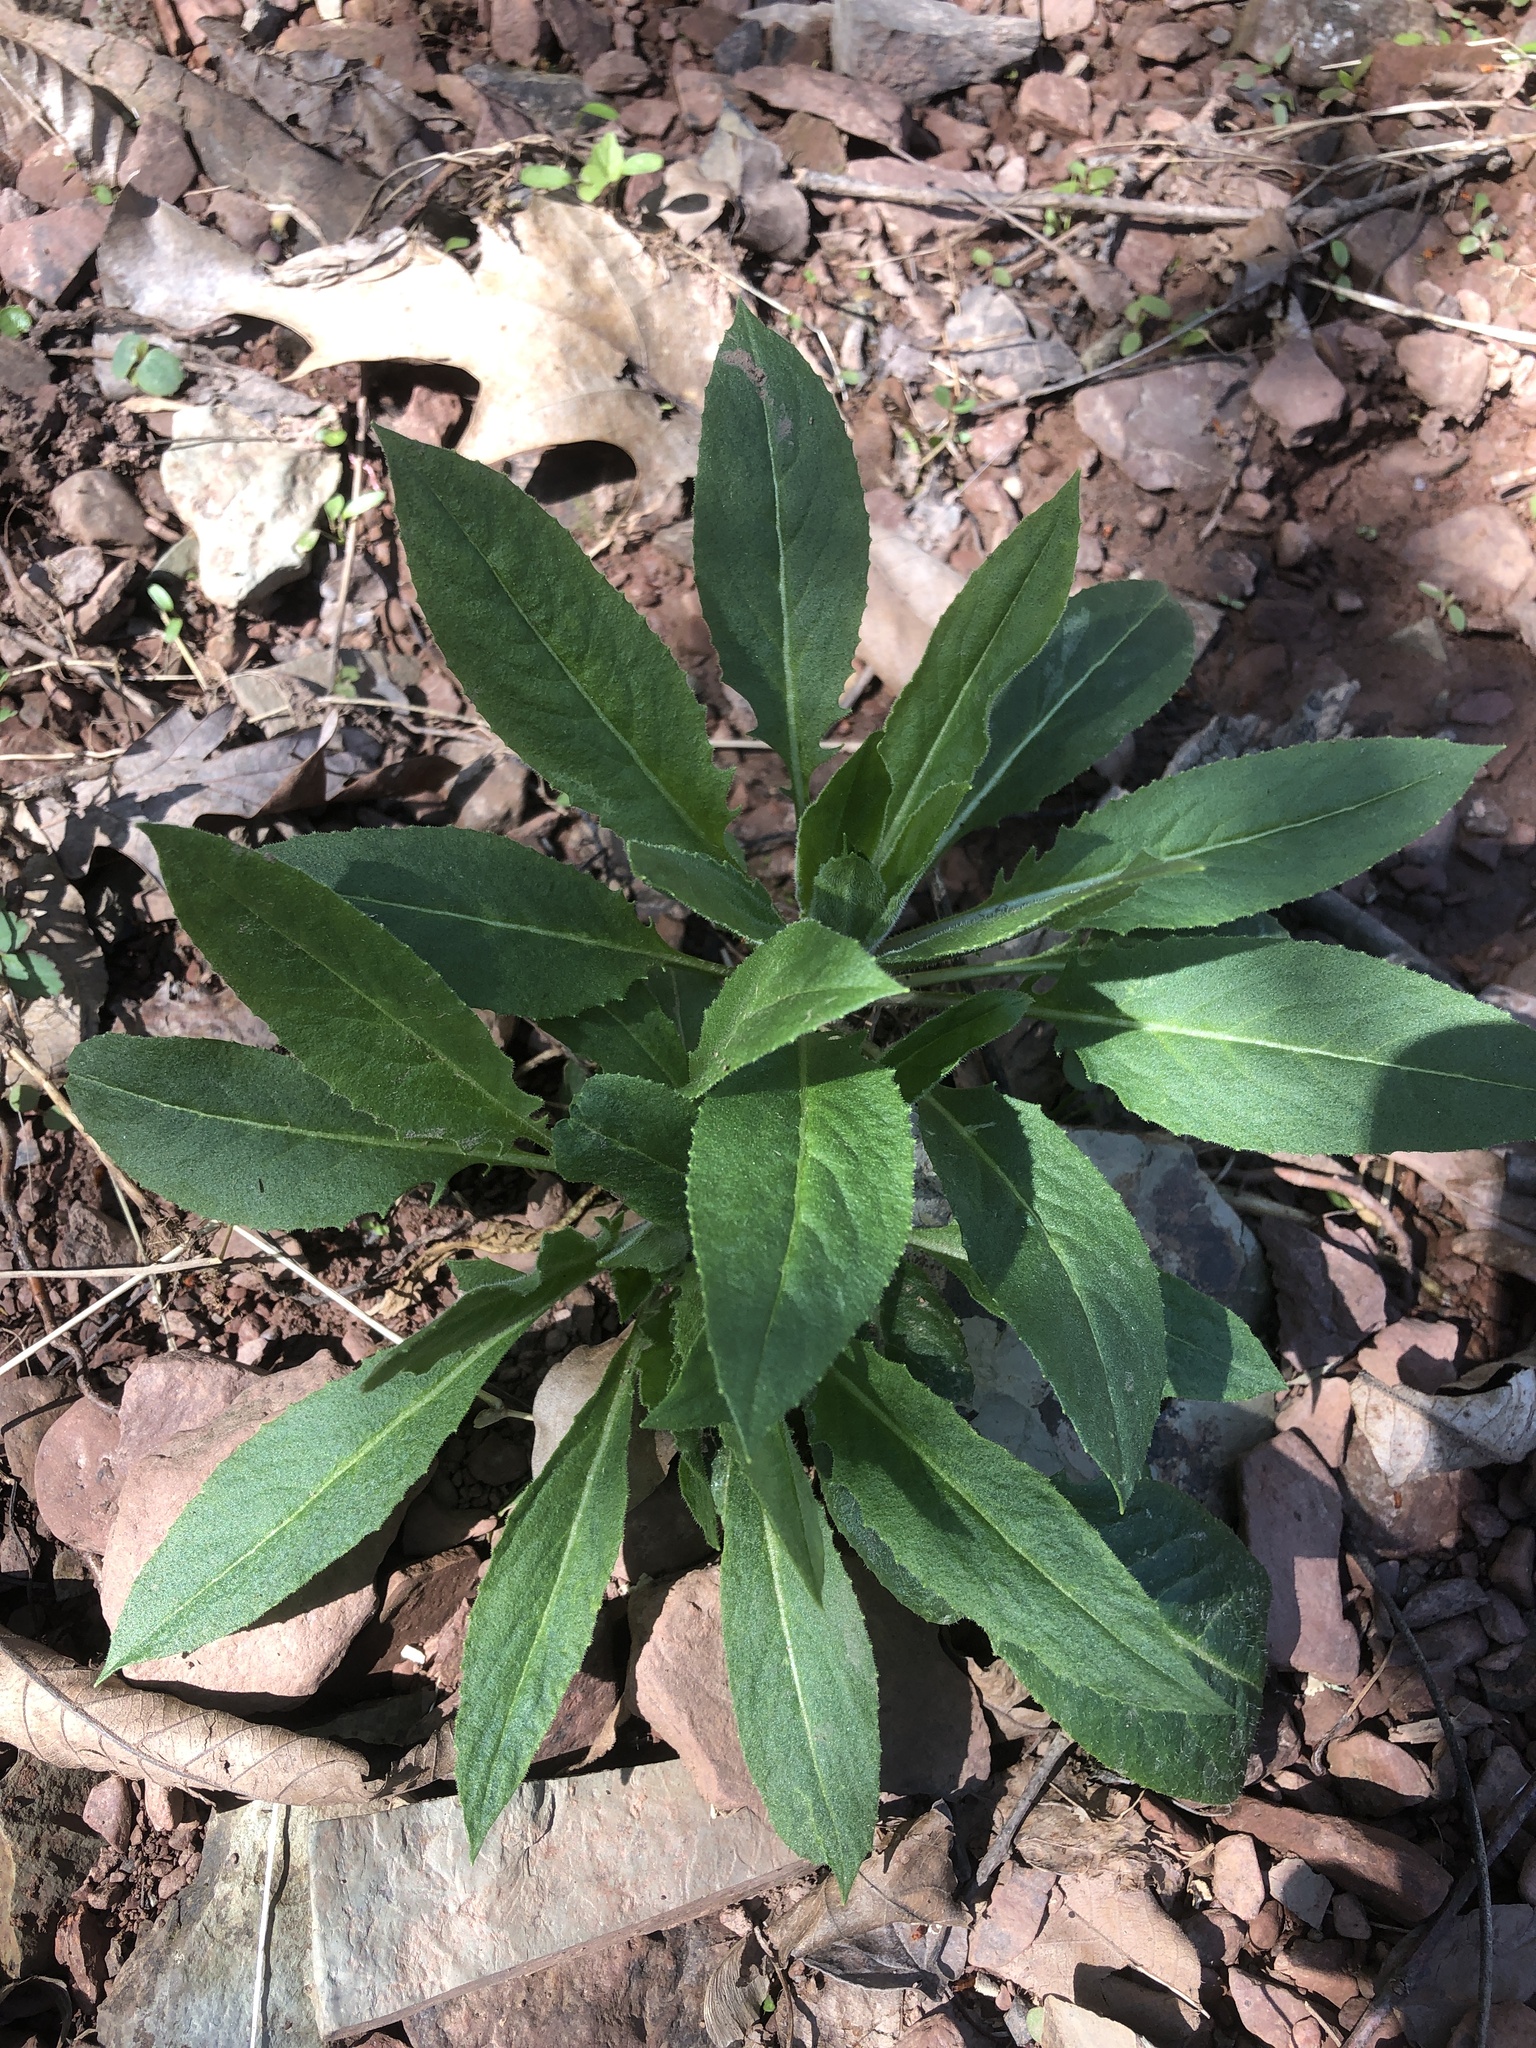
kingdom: Plantae
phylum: Tracheophyta
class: Magnoliopsida
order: Brassicales
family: Brassicaceae
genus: Hesperis
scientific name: Hesperis matronalis
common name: Dame's-violet
